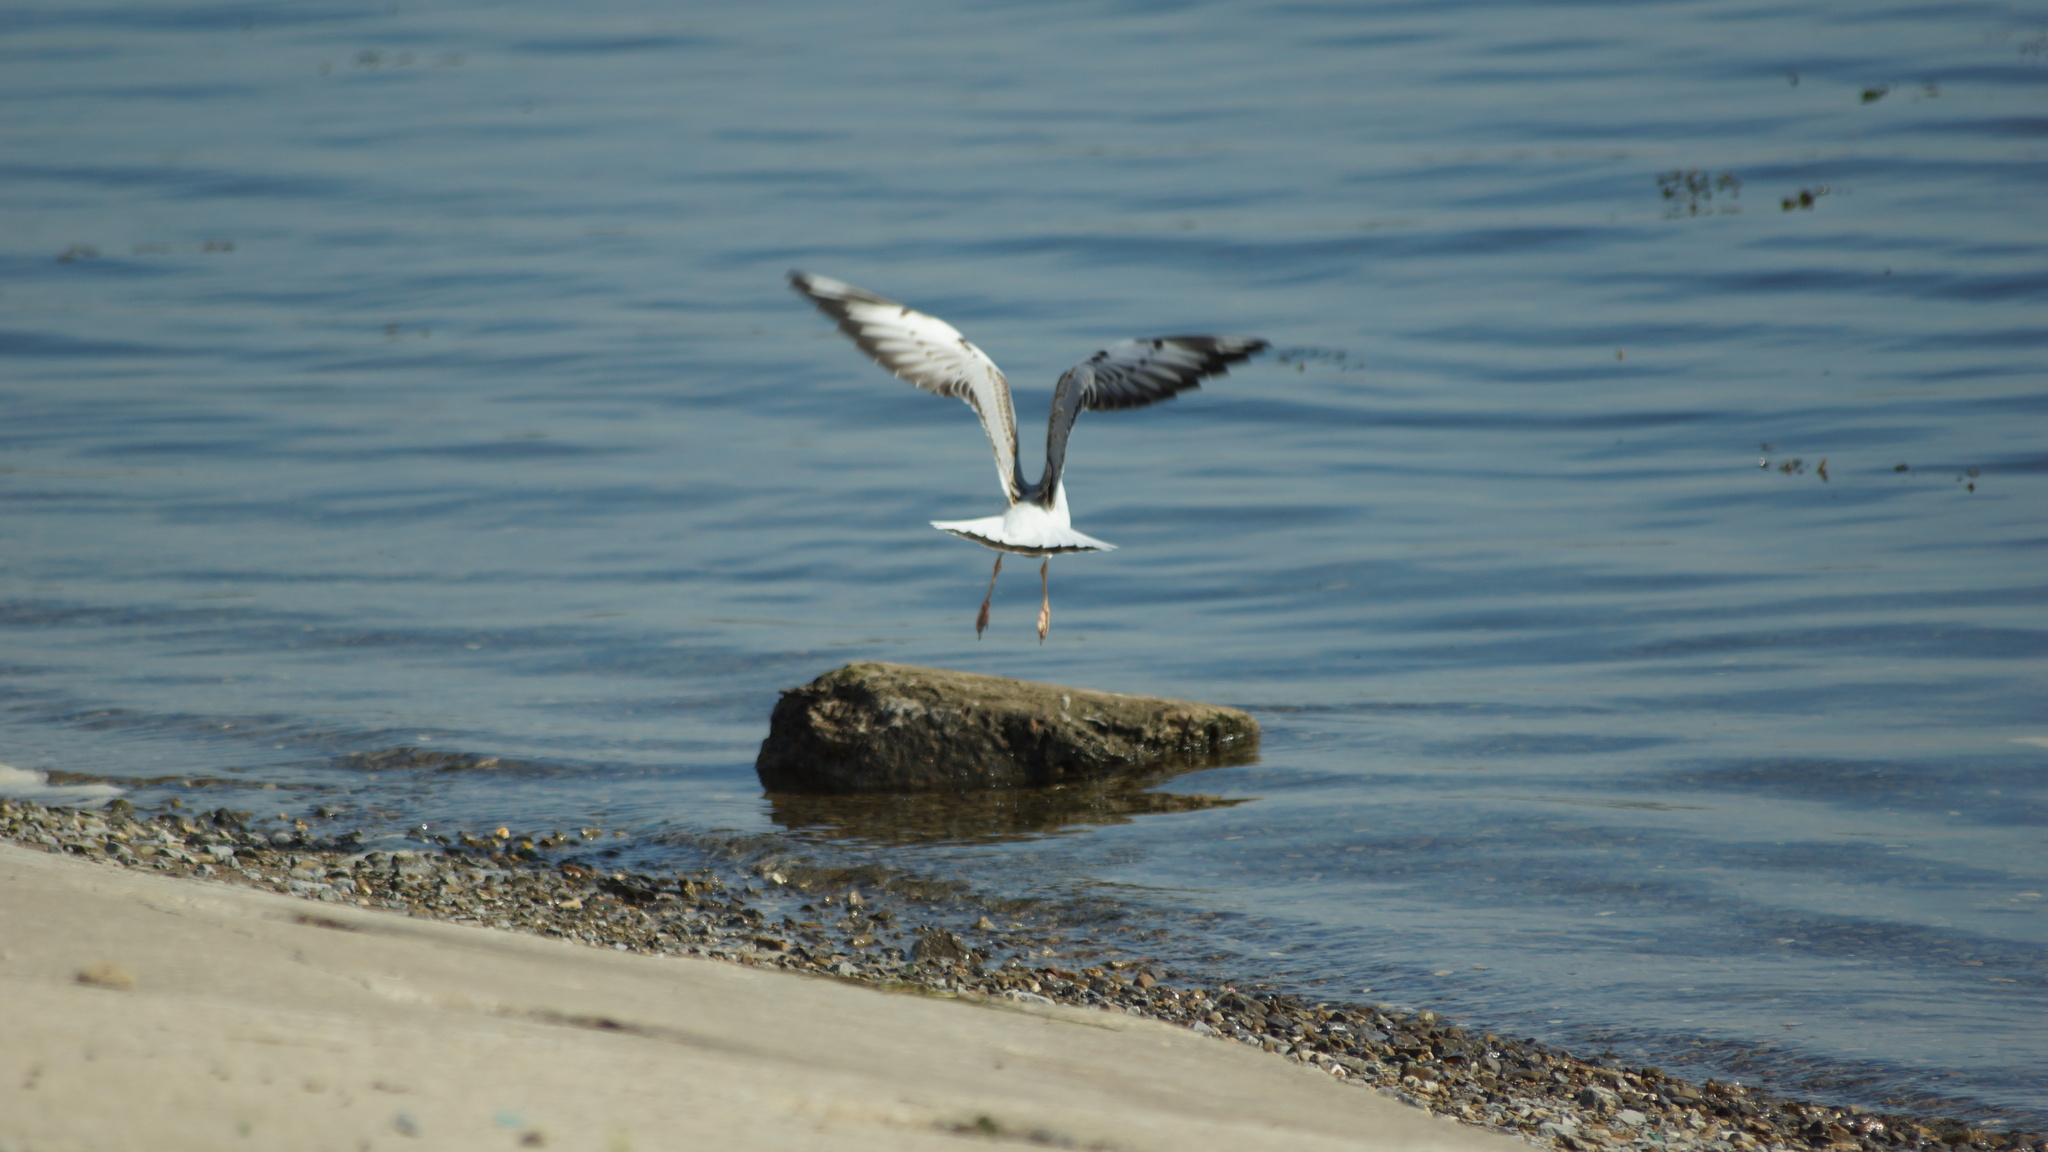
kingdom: Animalia
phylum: Chordata
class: Aves
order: Charadriiformes
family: Laridae
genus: Chroicocephalus
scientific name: Chroicocephalus ridibundus
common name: Black-headed gull
